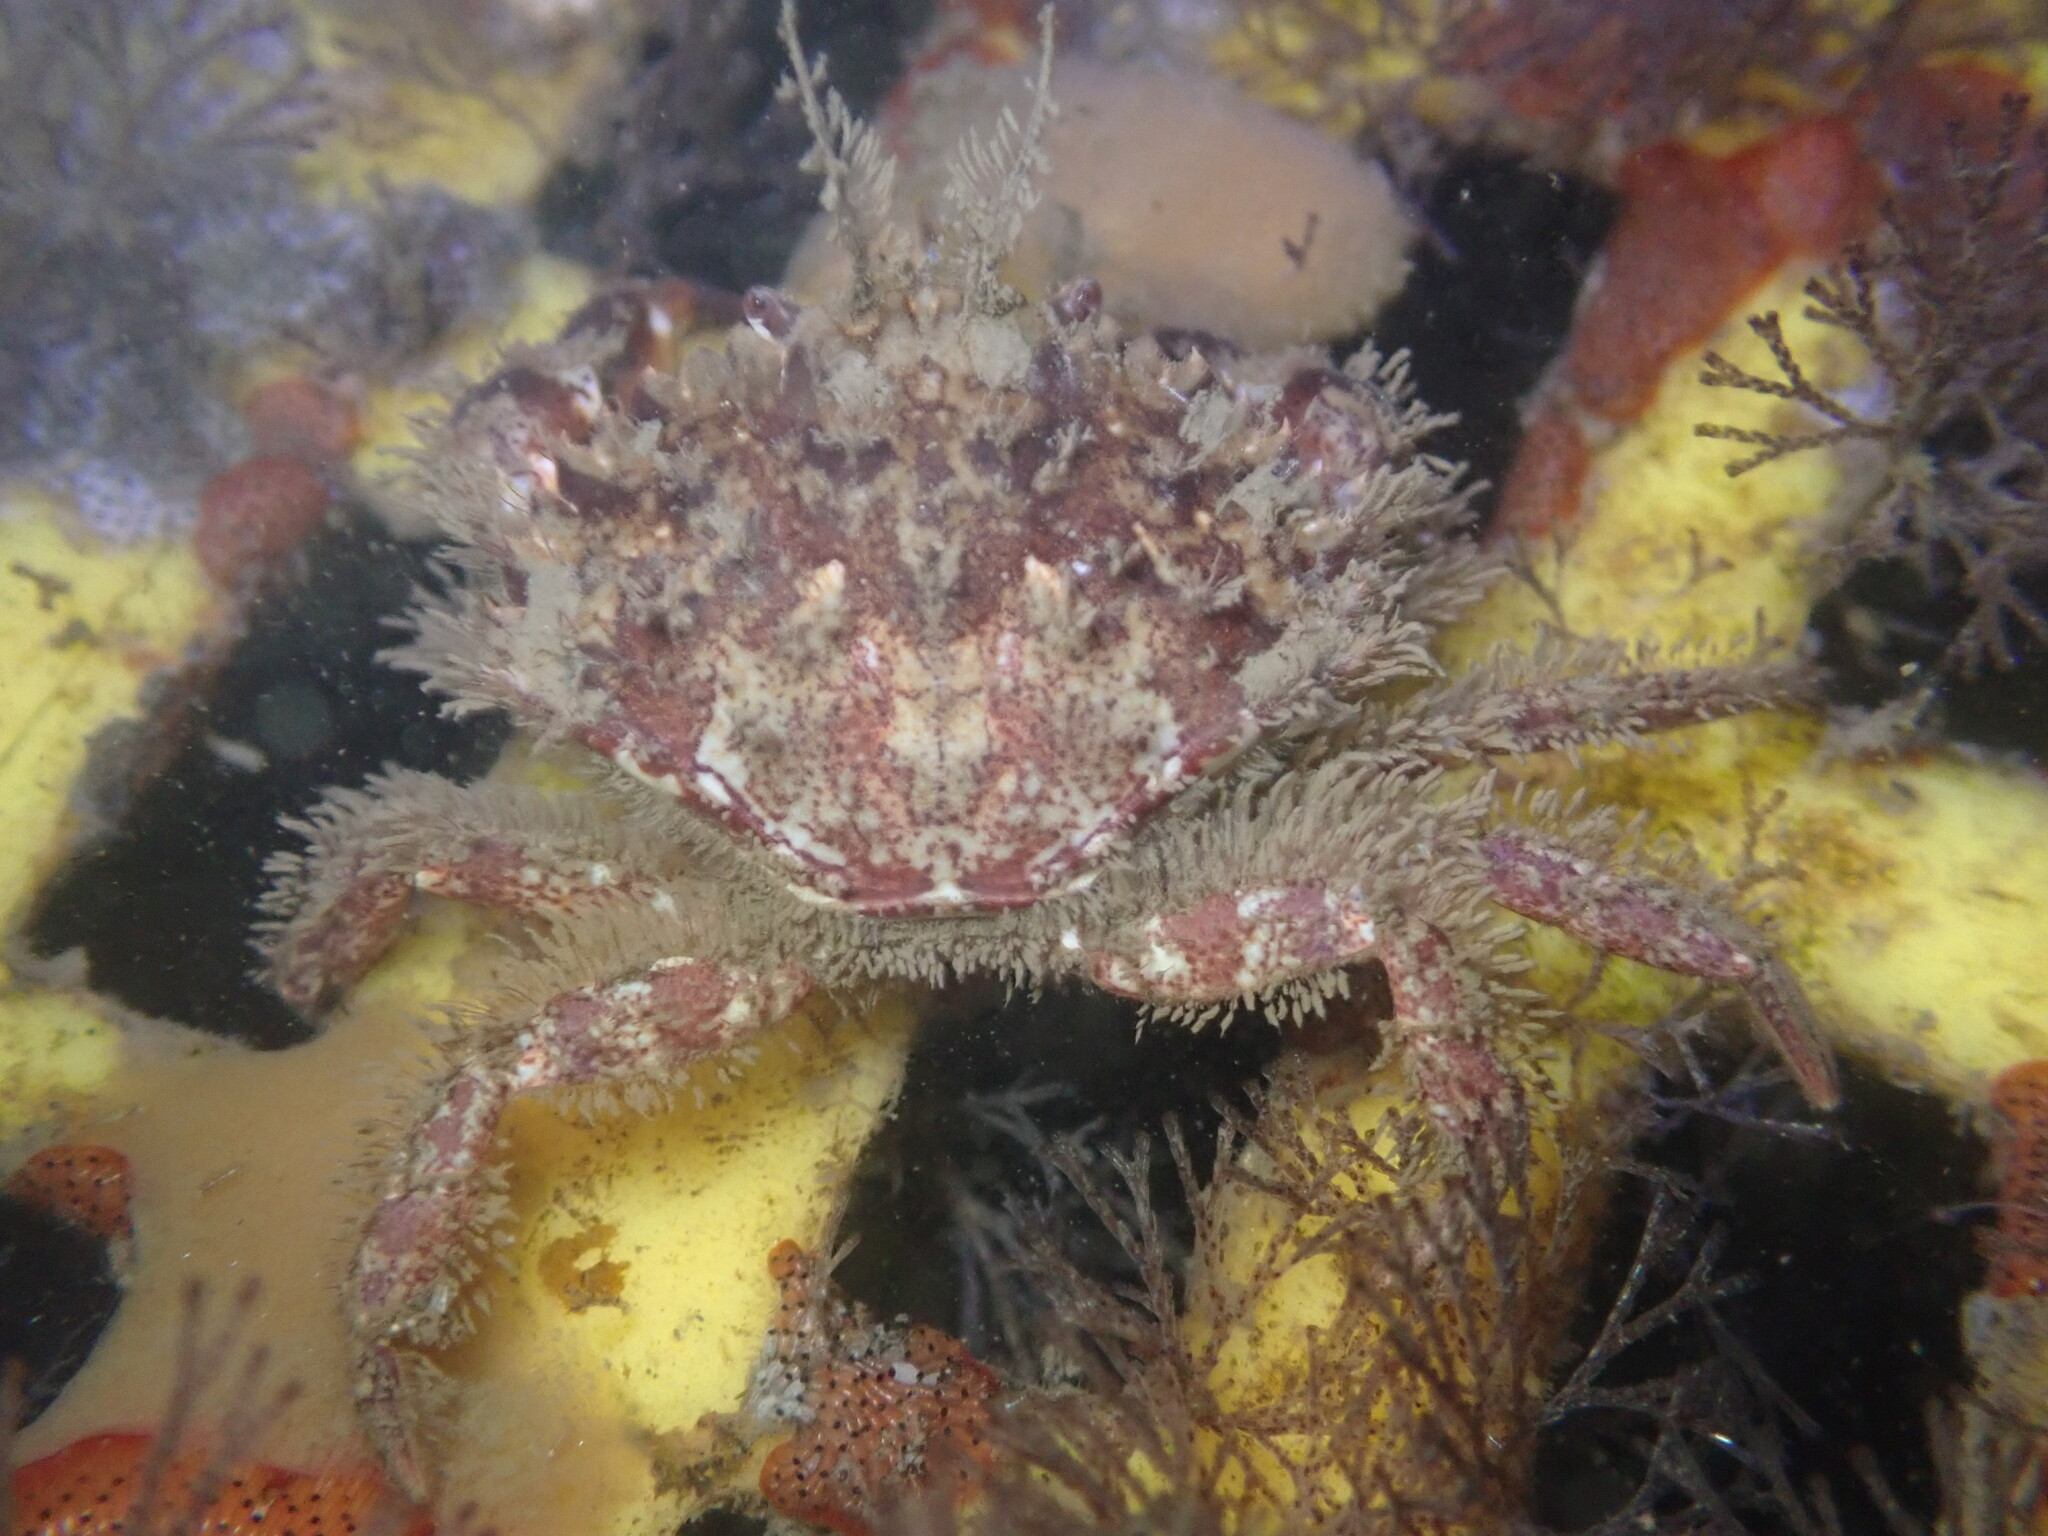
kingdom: Animalia
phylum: Arthropoda
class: Malacostraca
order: Decapoda
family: Cancridae
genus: Romaleon
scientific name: Romaleon antennarium
